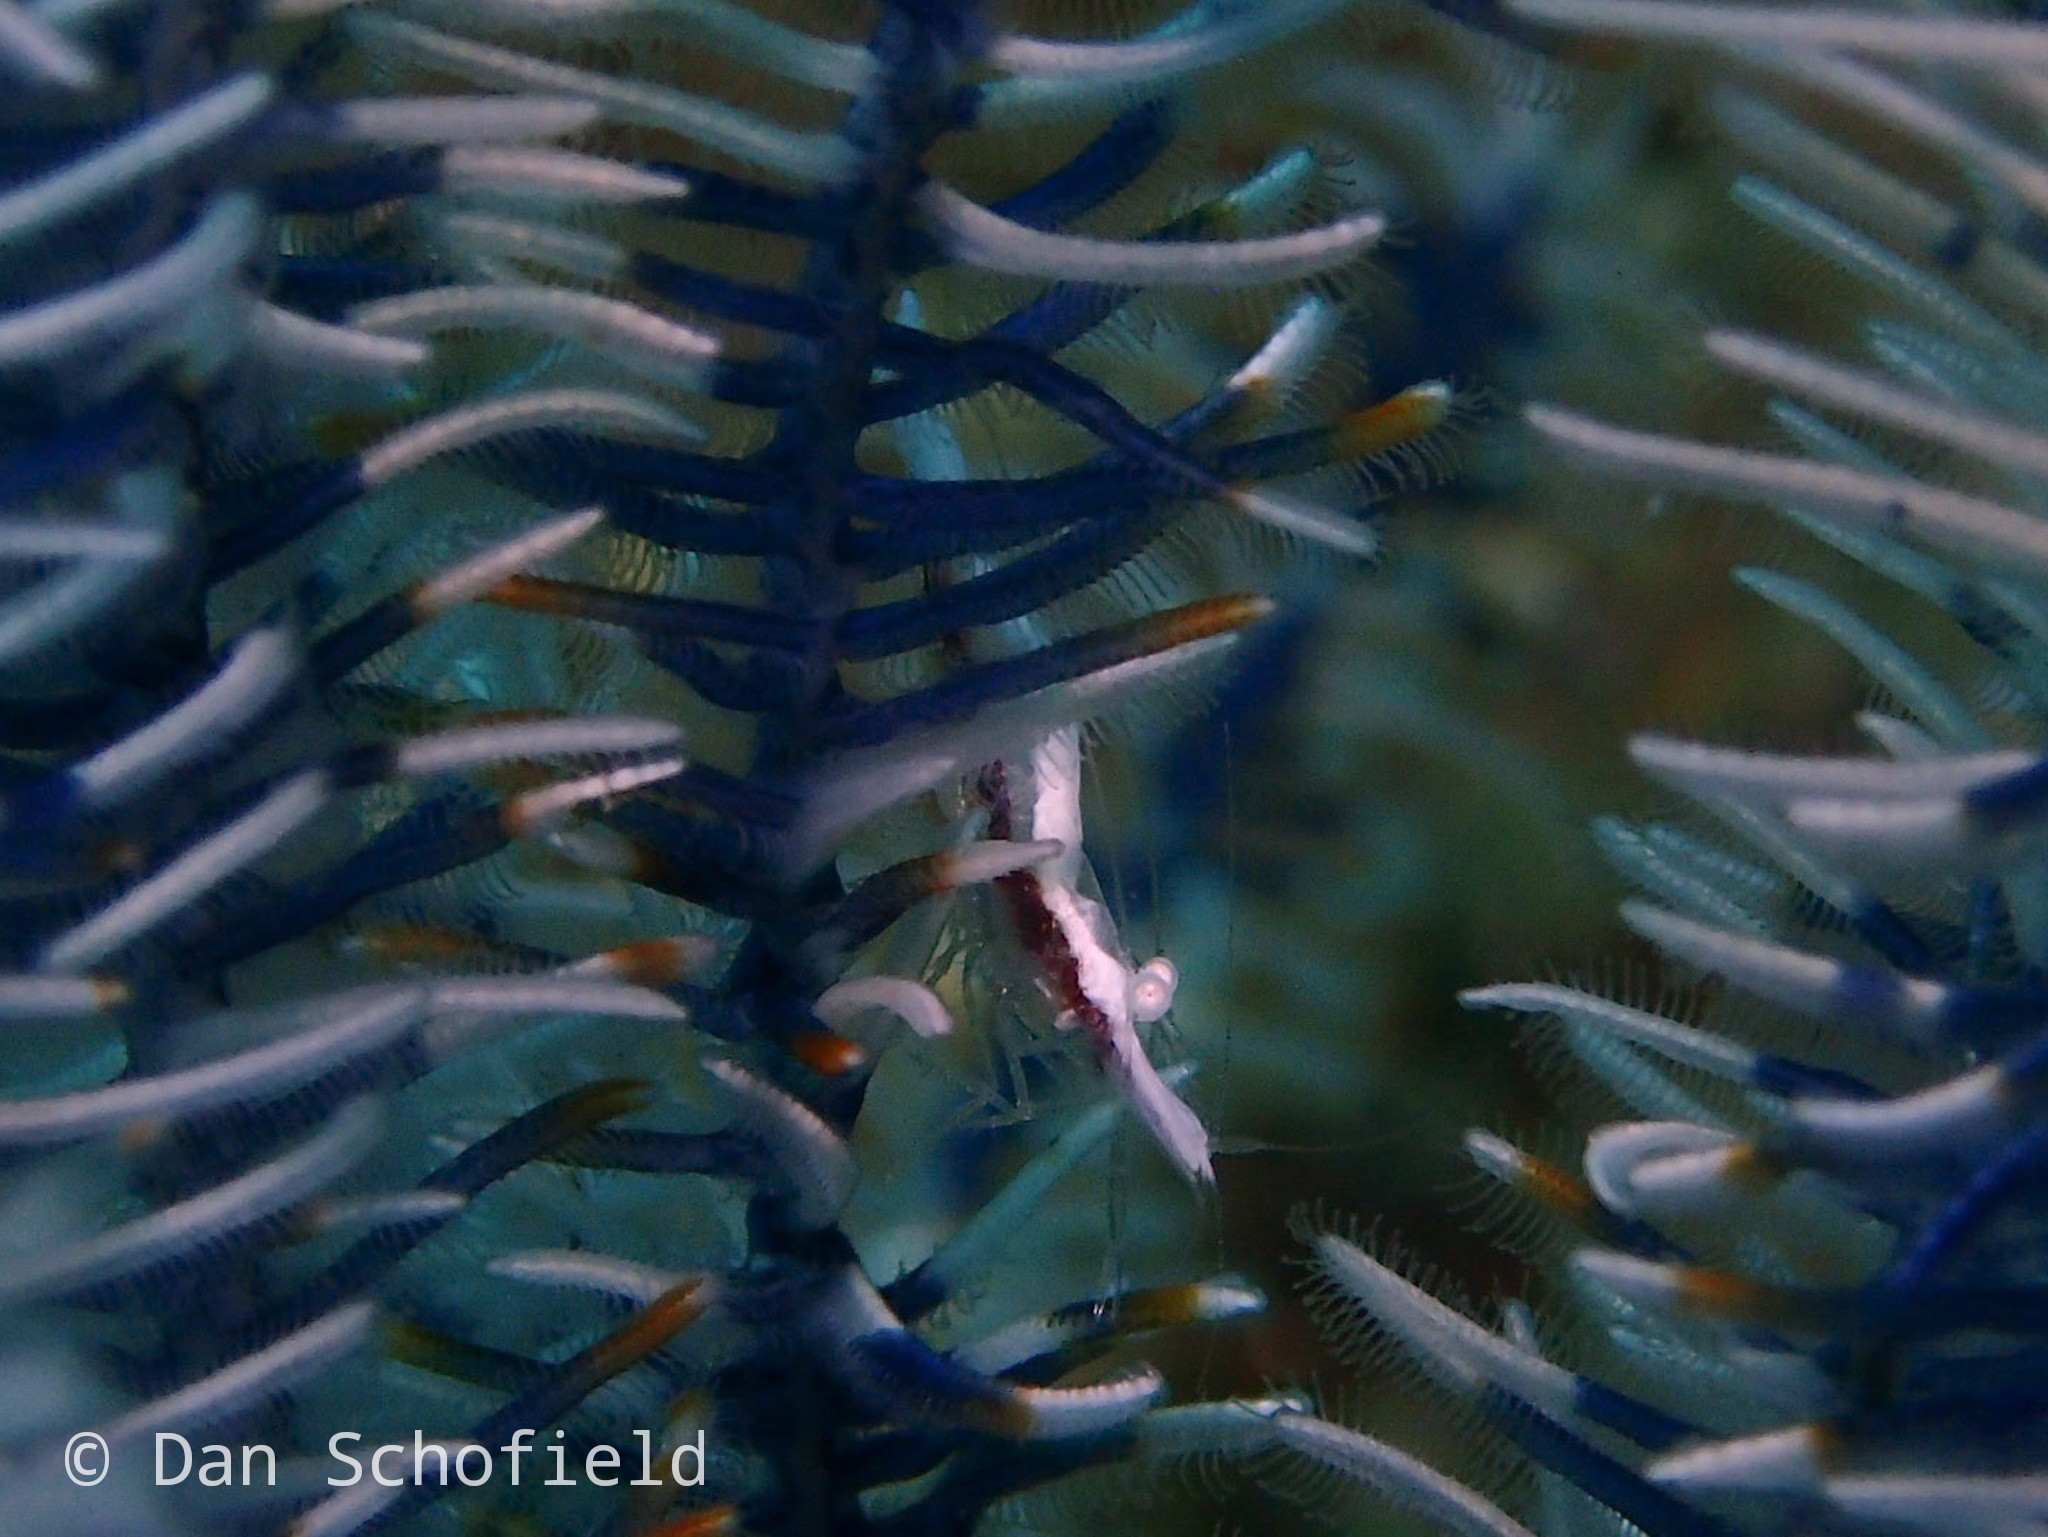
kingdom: Animalia
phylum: Arthropoda
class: Malacostraca
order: Decapoda
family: Palaemonidae
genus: Periclimenes
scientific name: Periclimenes affinis
